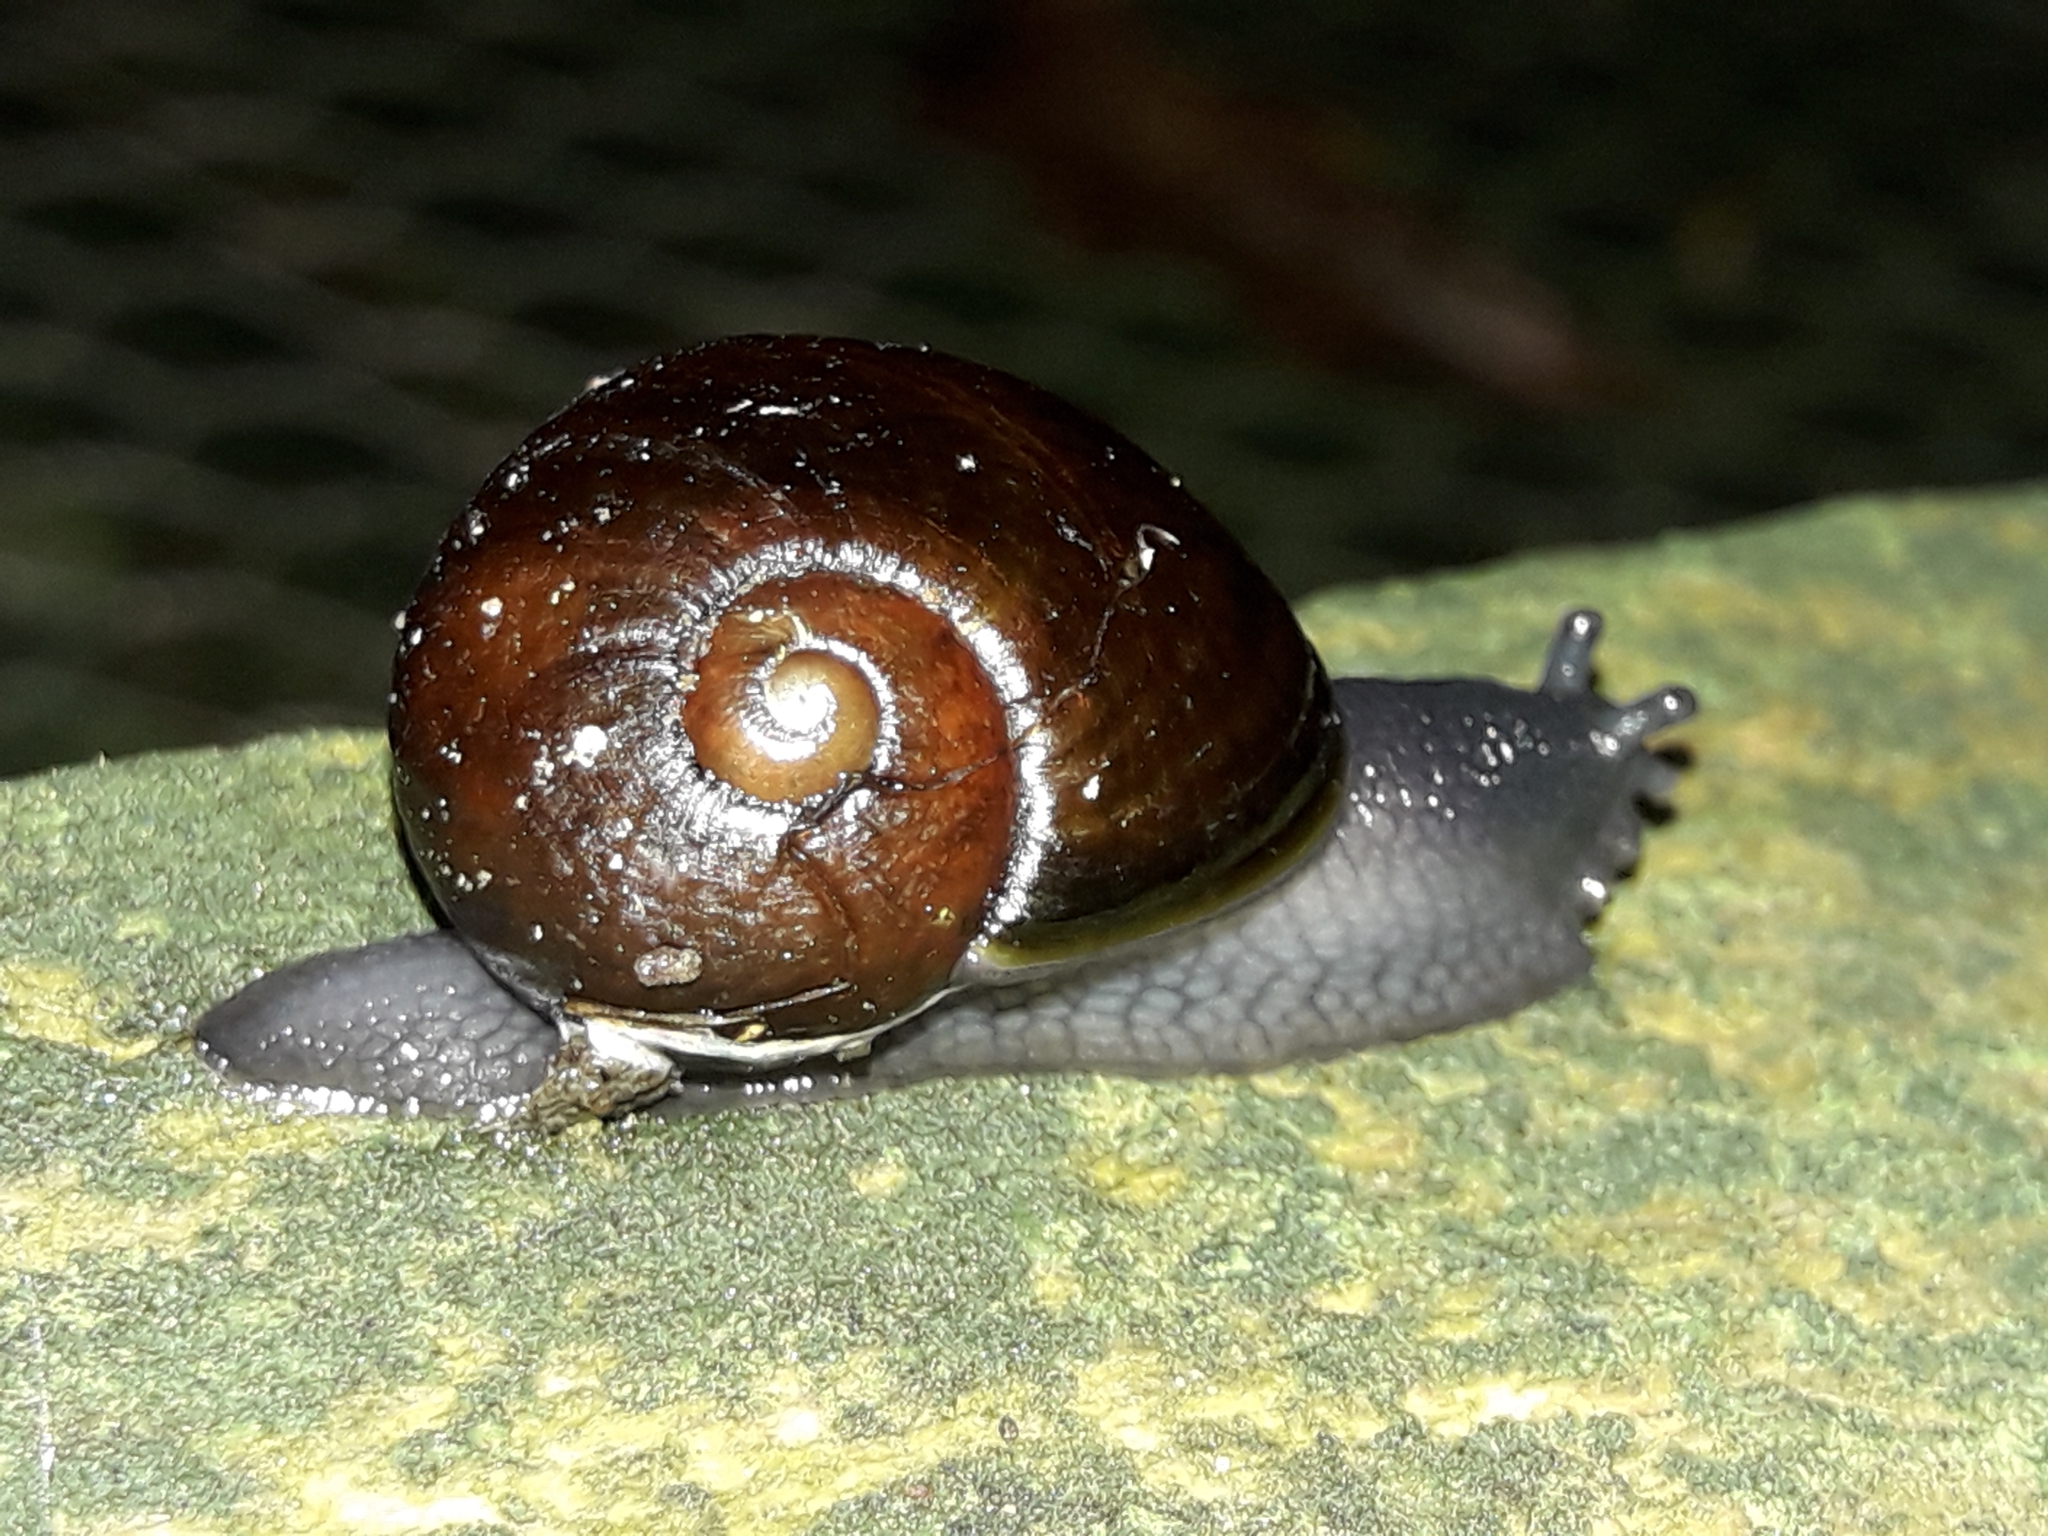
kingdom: Animalia
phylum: Mollusca
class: Gastropoda
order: Stylommatophora
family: Rhytididae
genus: Wainuia
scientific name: Wainuia urnula
